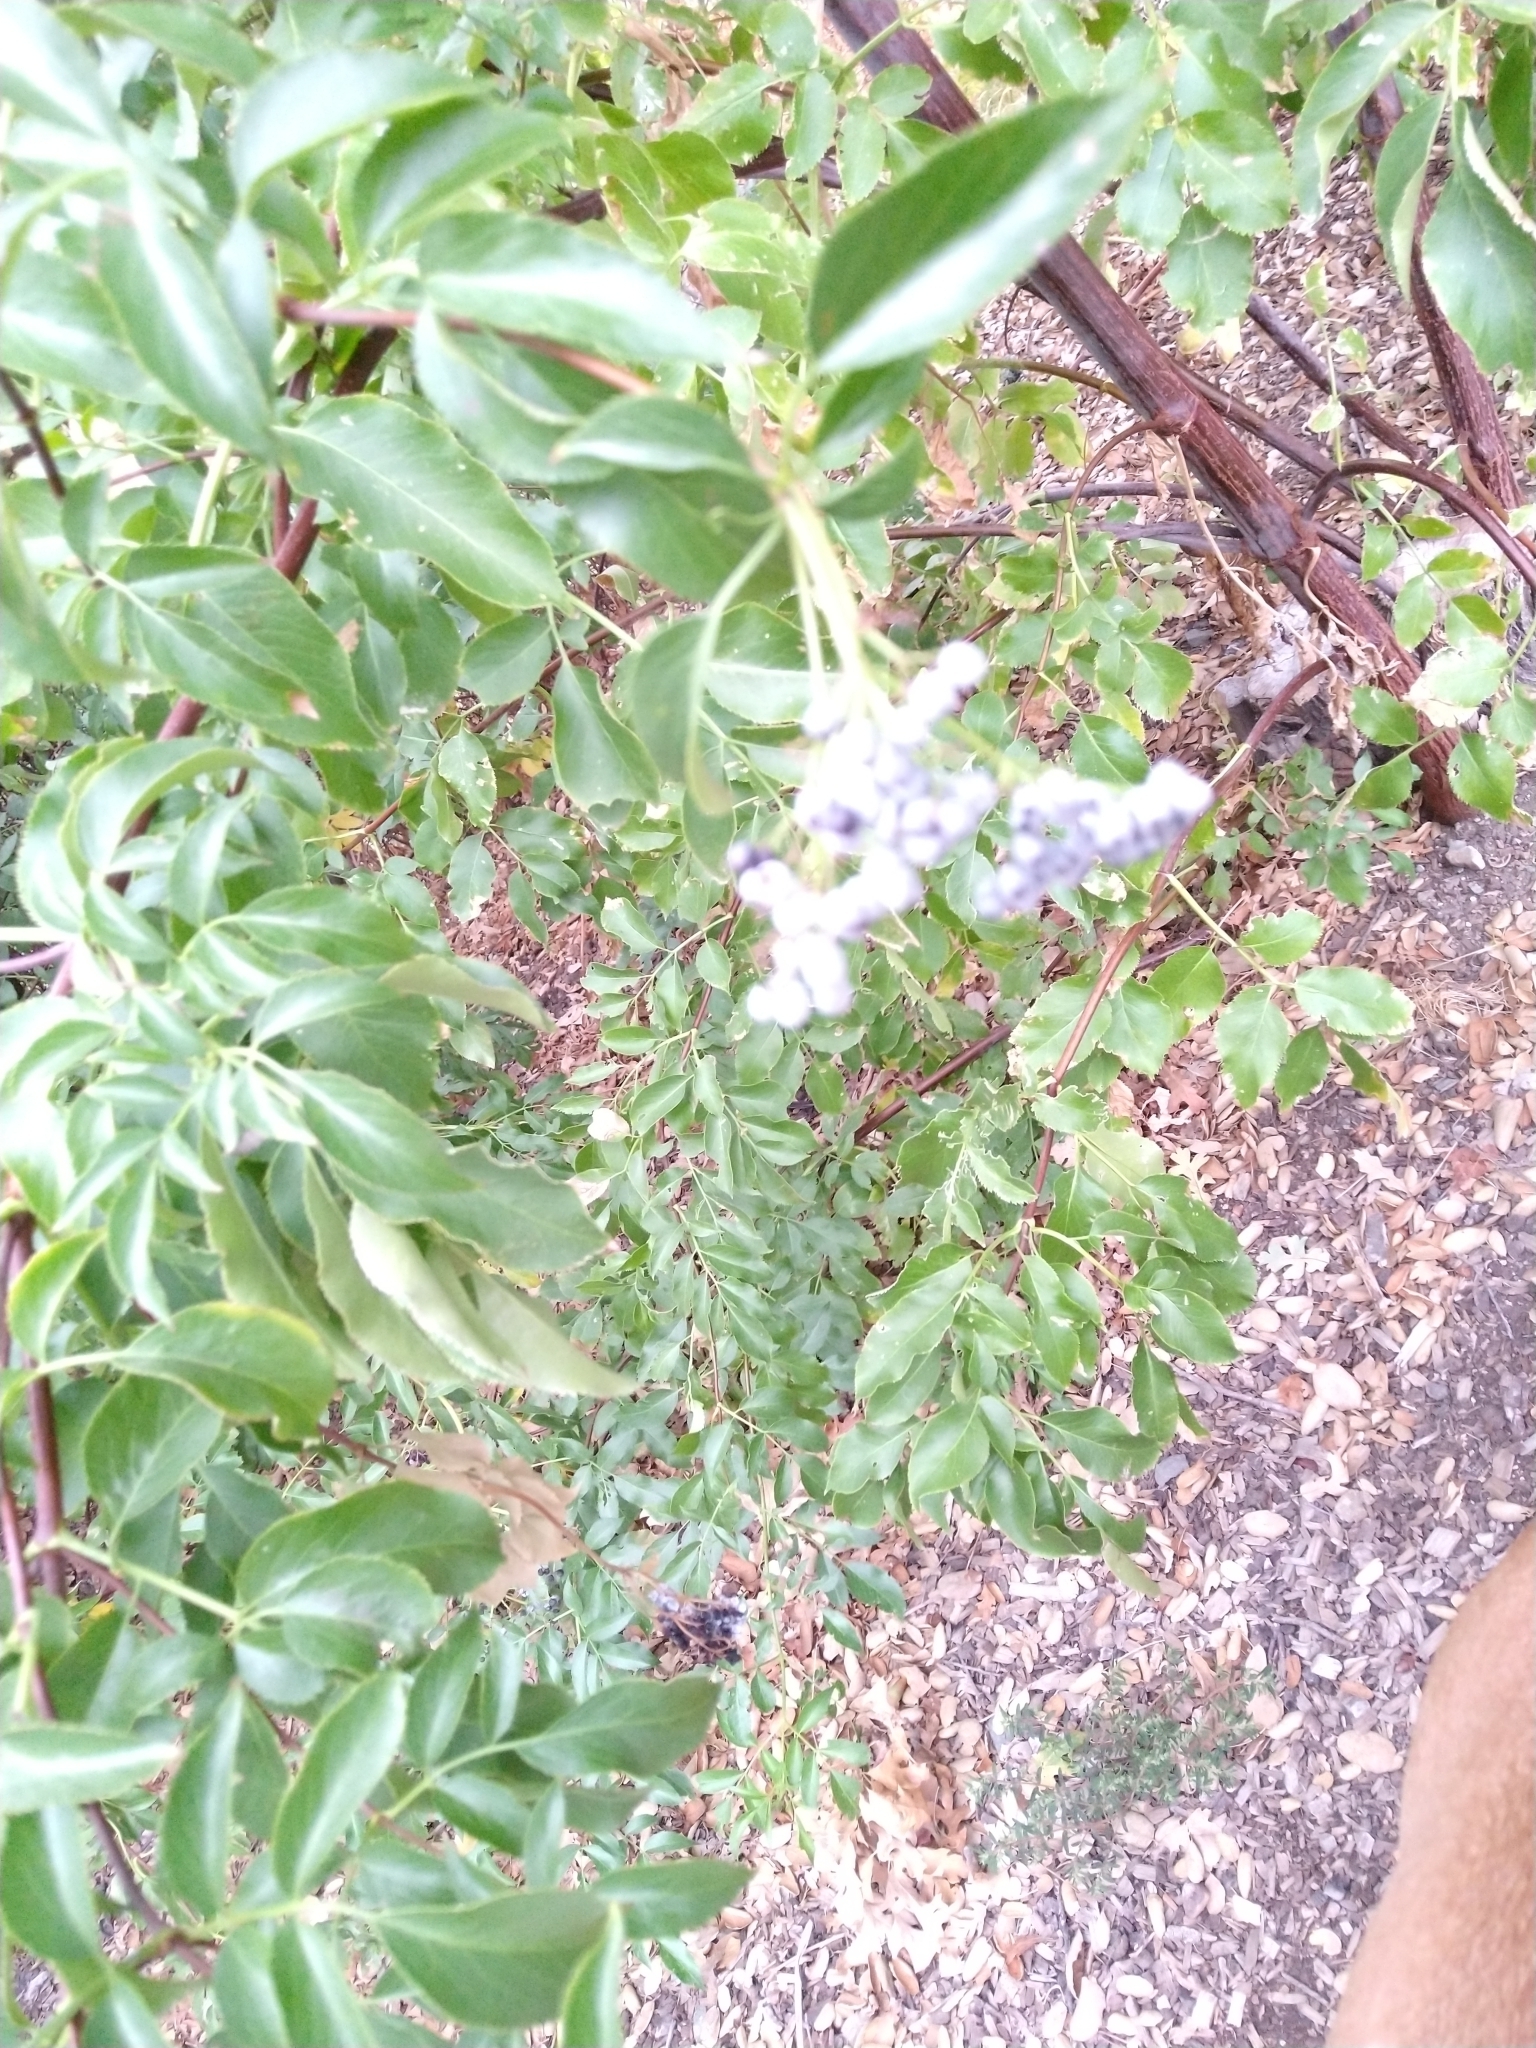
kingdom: Plantae
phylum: Tracheophyta
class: Magnoliopsida
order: Dipsacales
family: Viburnaceae
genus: Sambucus
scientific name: Sambucus cerulea
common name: Blue elder
